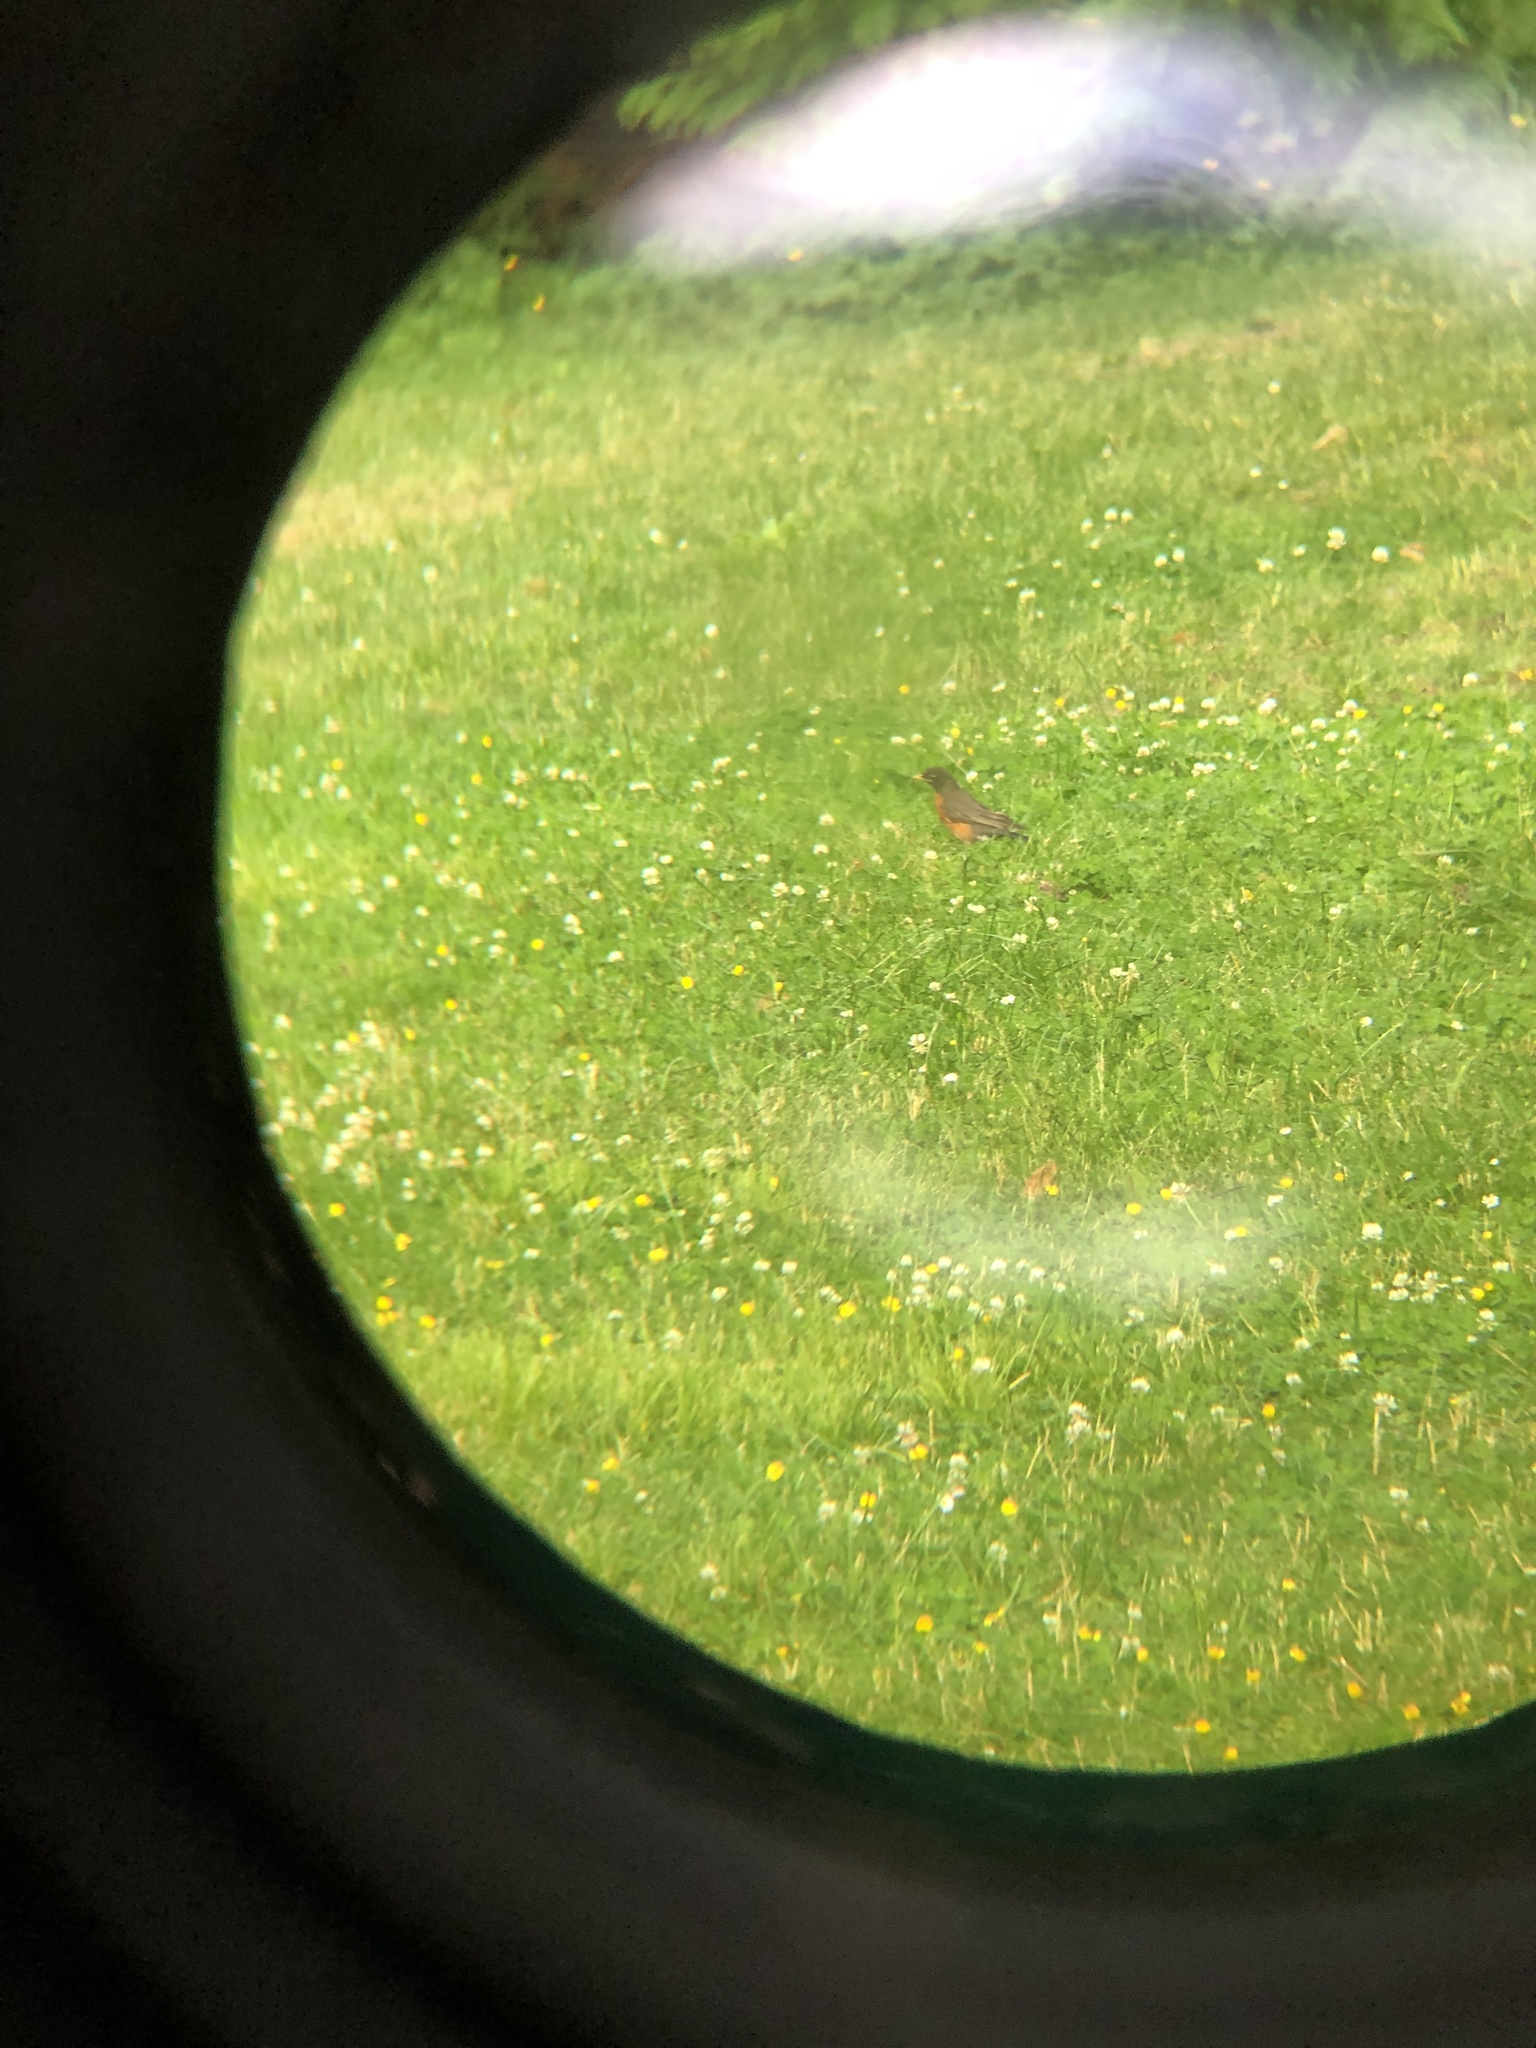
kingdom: Animalia
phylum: Chordata
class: Aves
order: Passeriformes
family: Turdidae
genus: Turdus
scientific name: Turdus migratorius
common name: American robin
